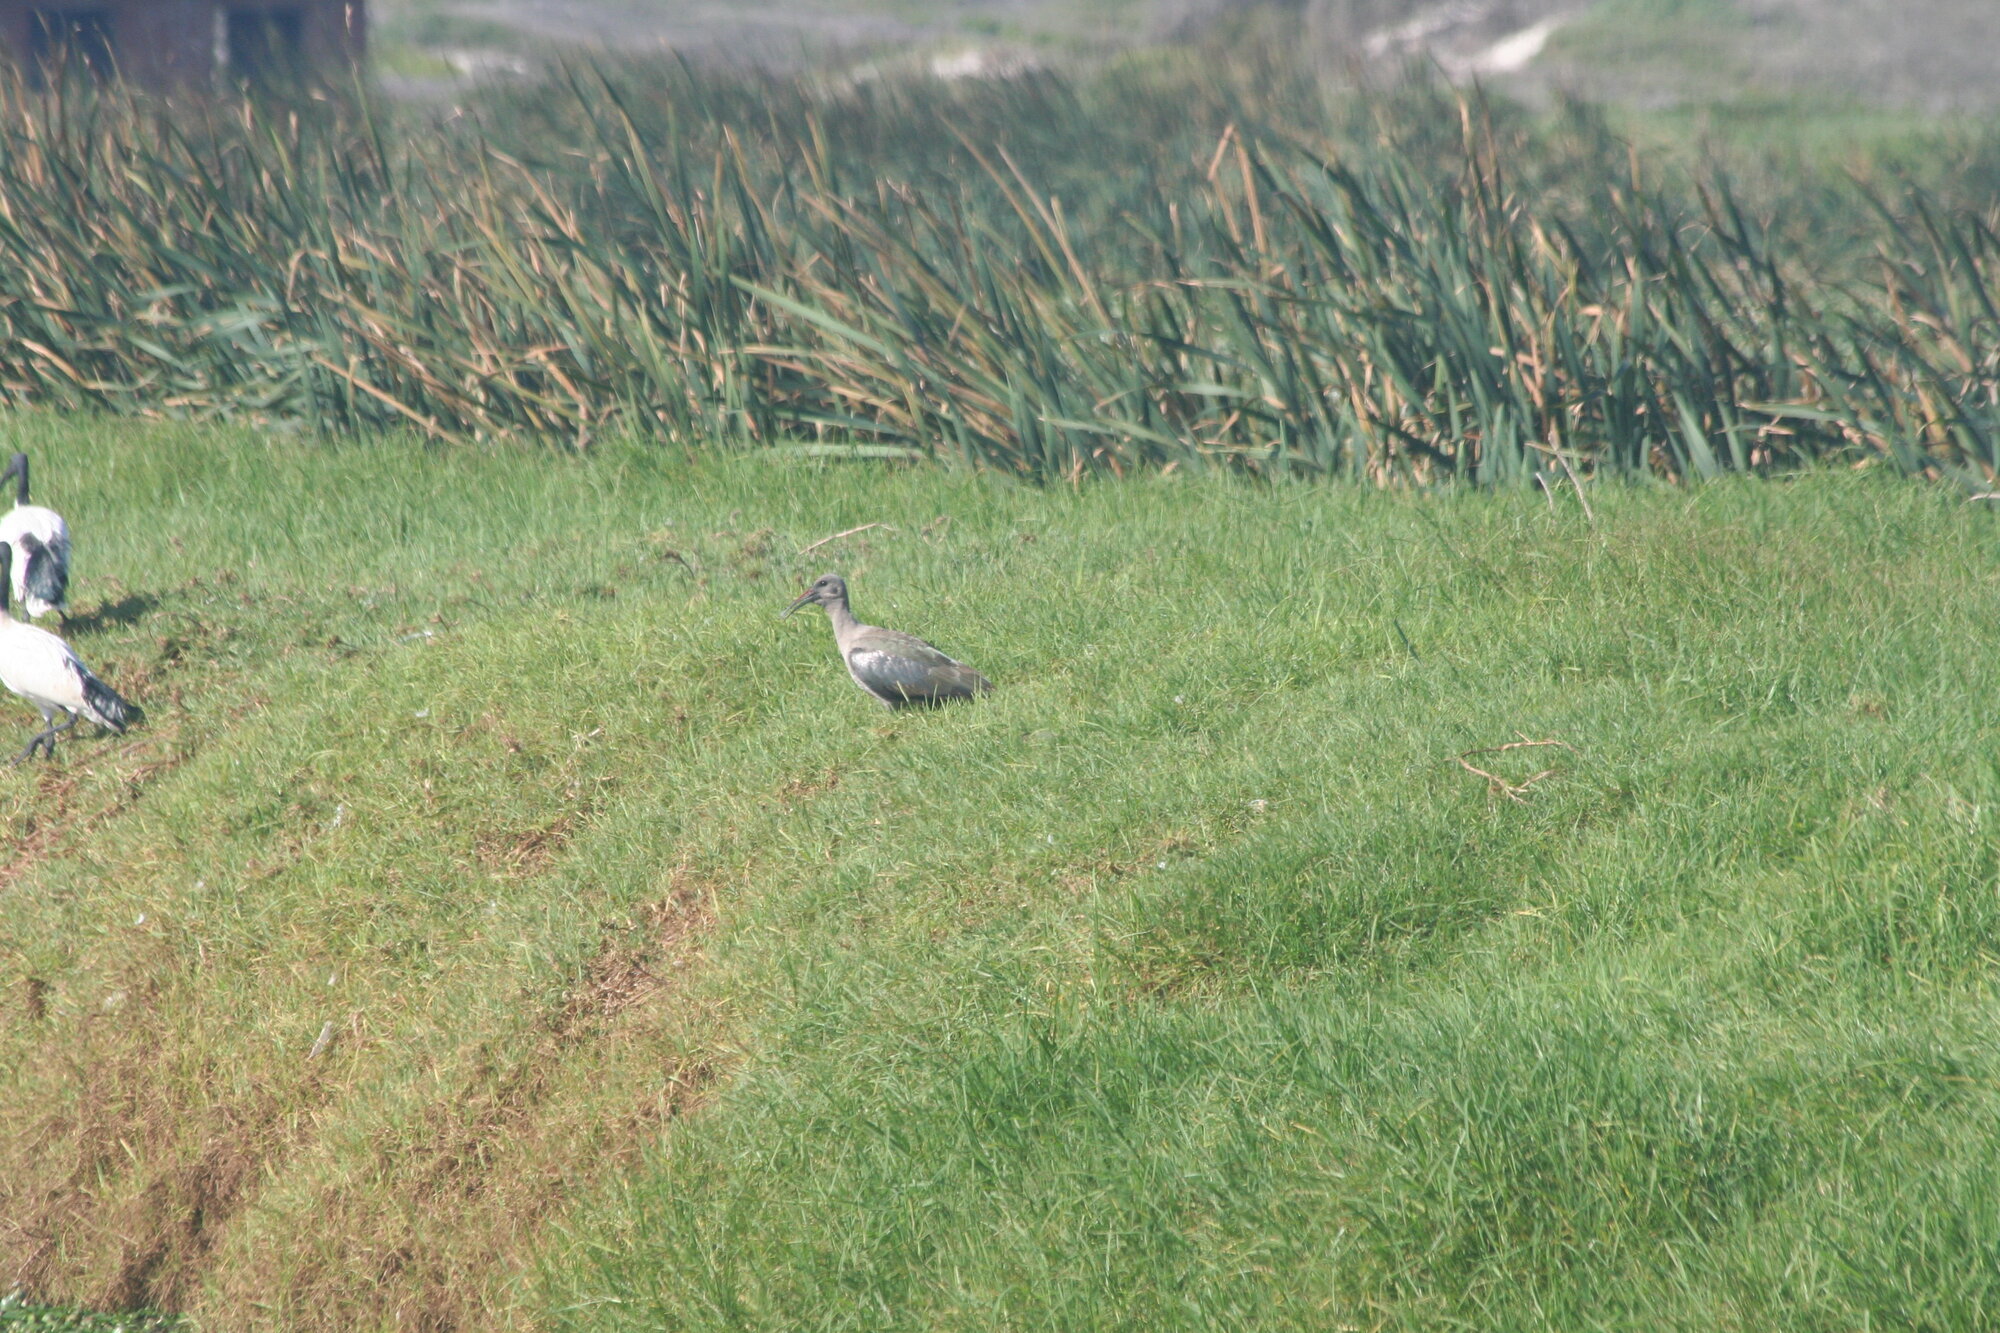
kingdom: Animalia
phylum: Chordata
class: Aves
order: Pelecaniformes
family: Threskiornithidae
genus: Bostrychia
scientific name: Bostrychia hagedash
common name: Hadada ibis
